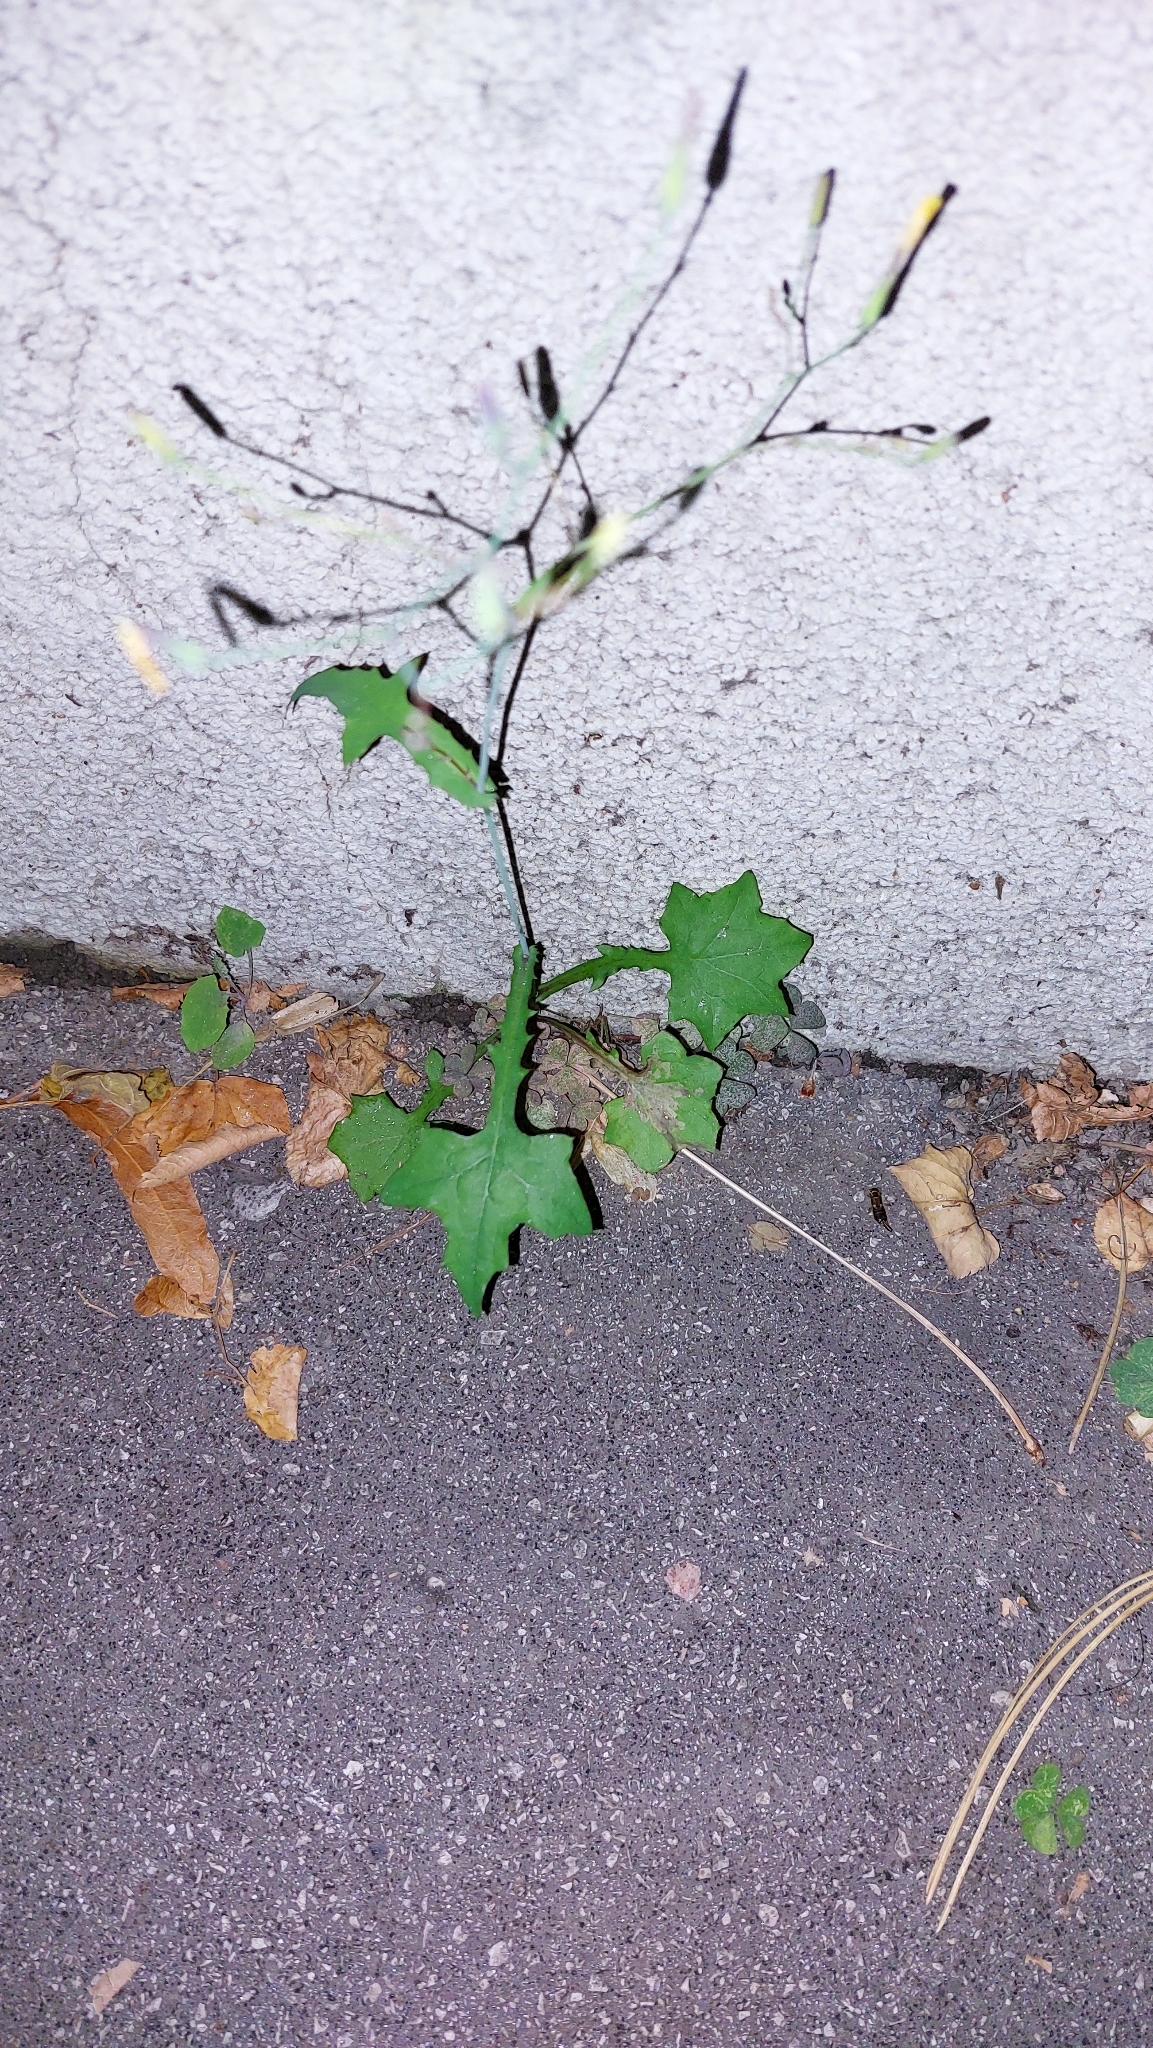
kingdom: Plantae
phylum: Tracheophyta
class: Magnoliopsida
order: Asterales
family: Asteraceae
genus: Mycelis
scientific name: Mycelis muralis
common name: Wall lettuce
